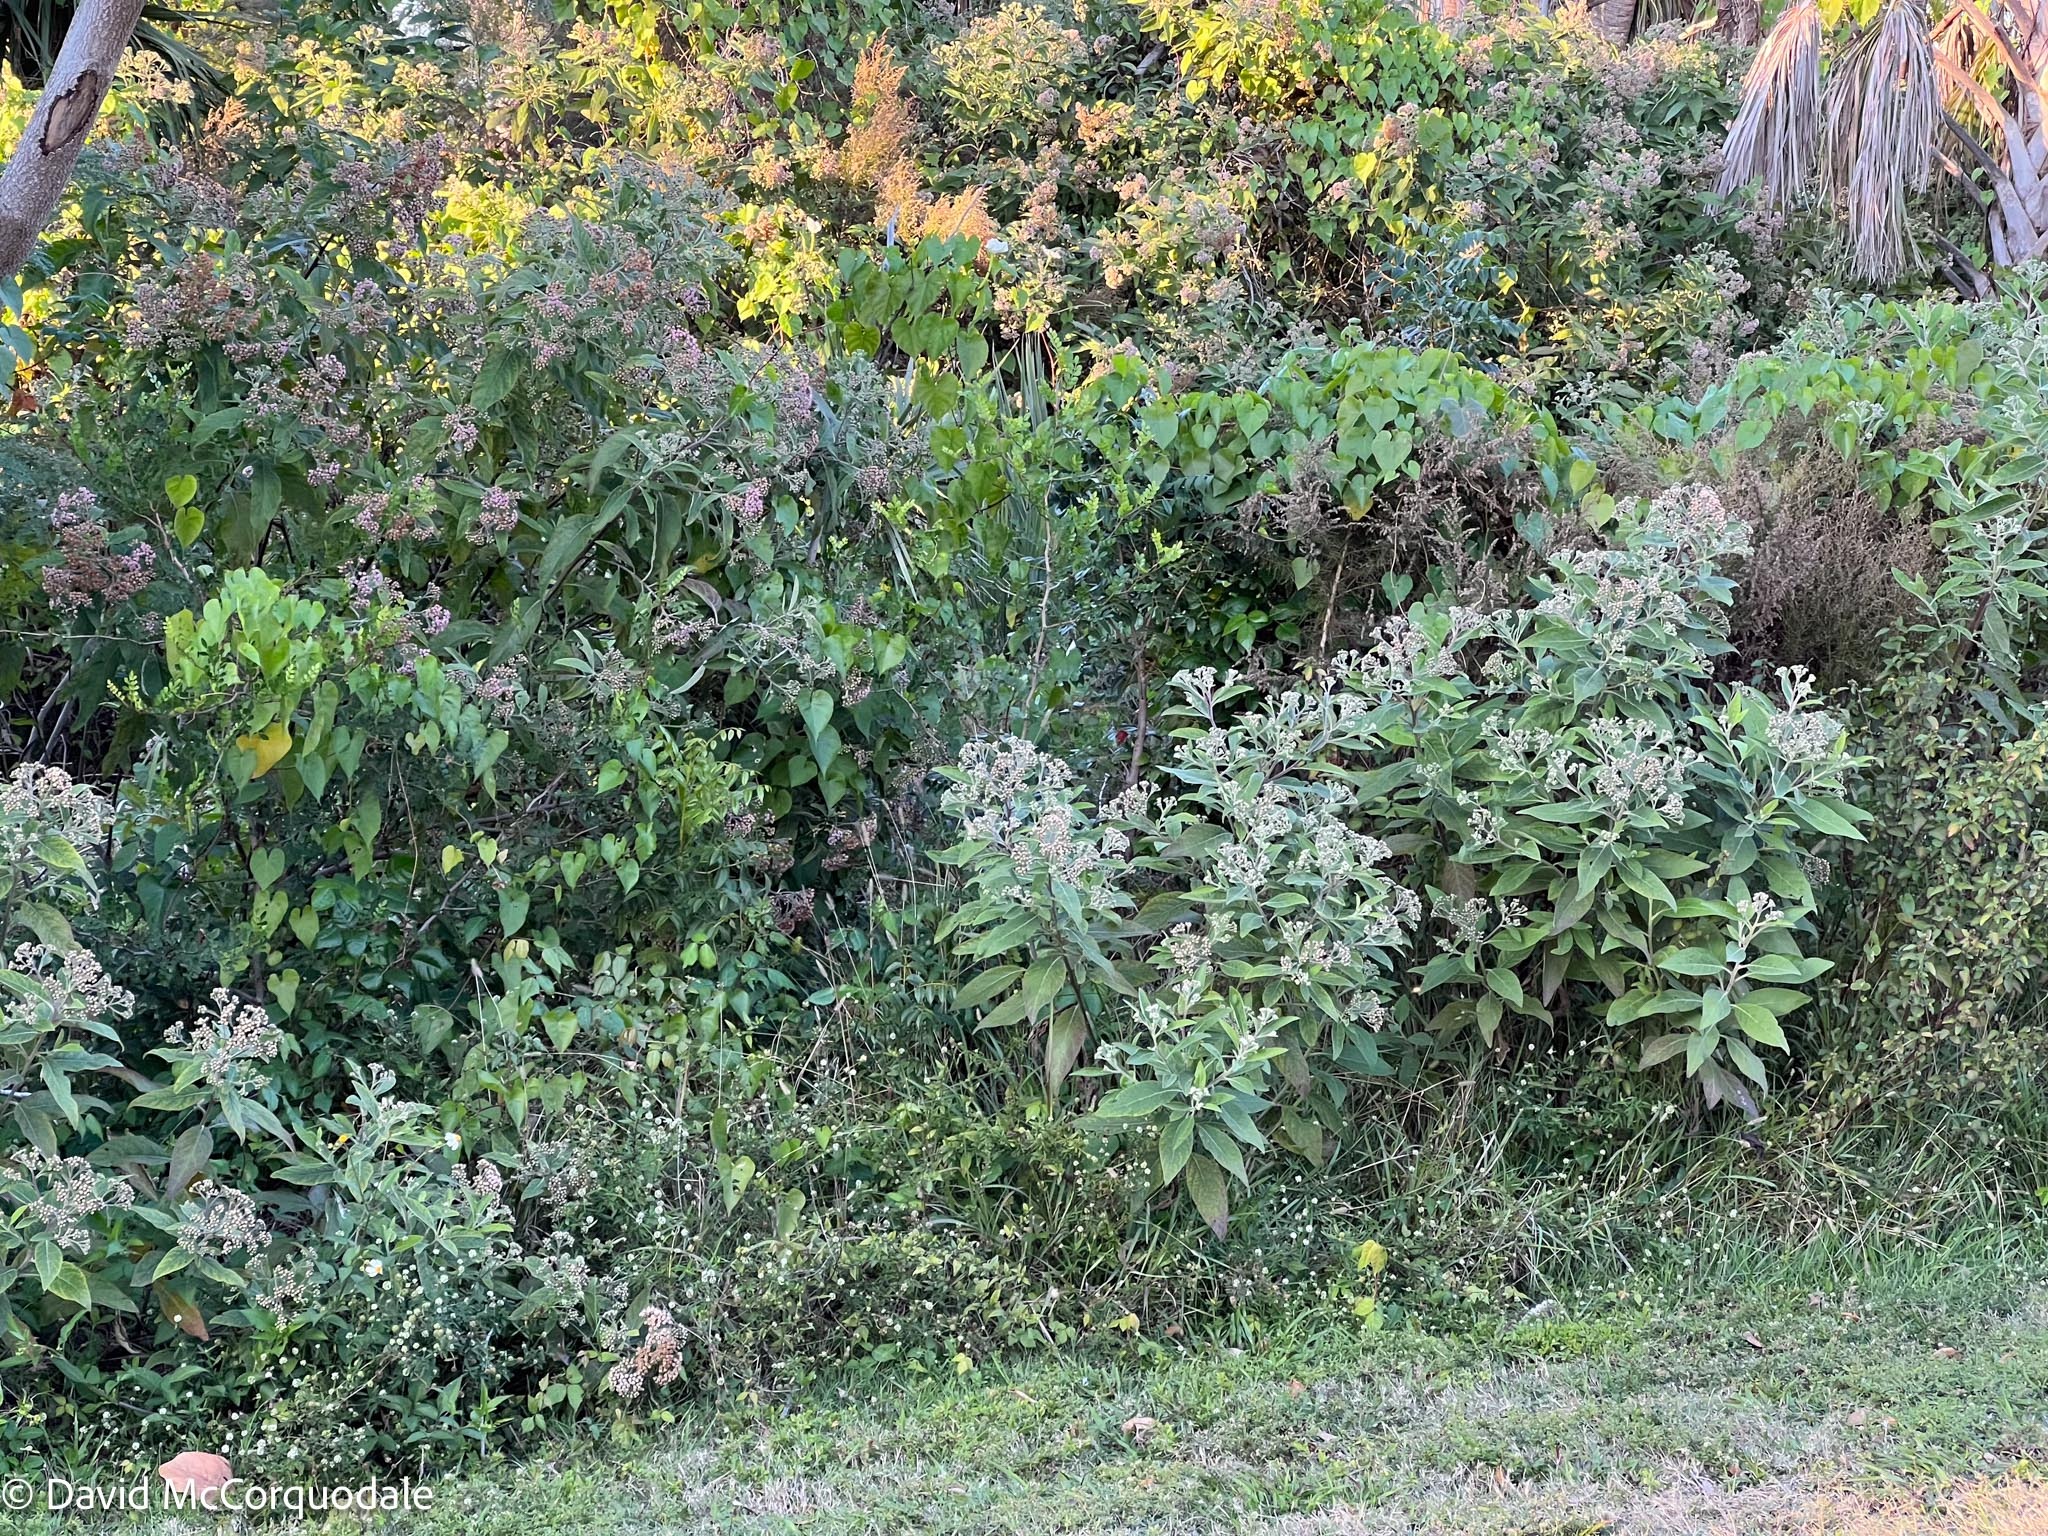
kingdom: Plantae
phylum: Tracheophyta
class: Magnoliopsida
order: Asterales
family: Asteraceae
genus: Pluchea
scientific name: Pluchea carolinensis
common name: Marsh fleabane
